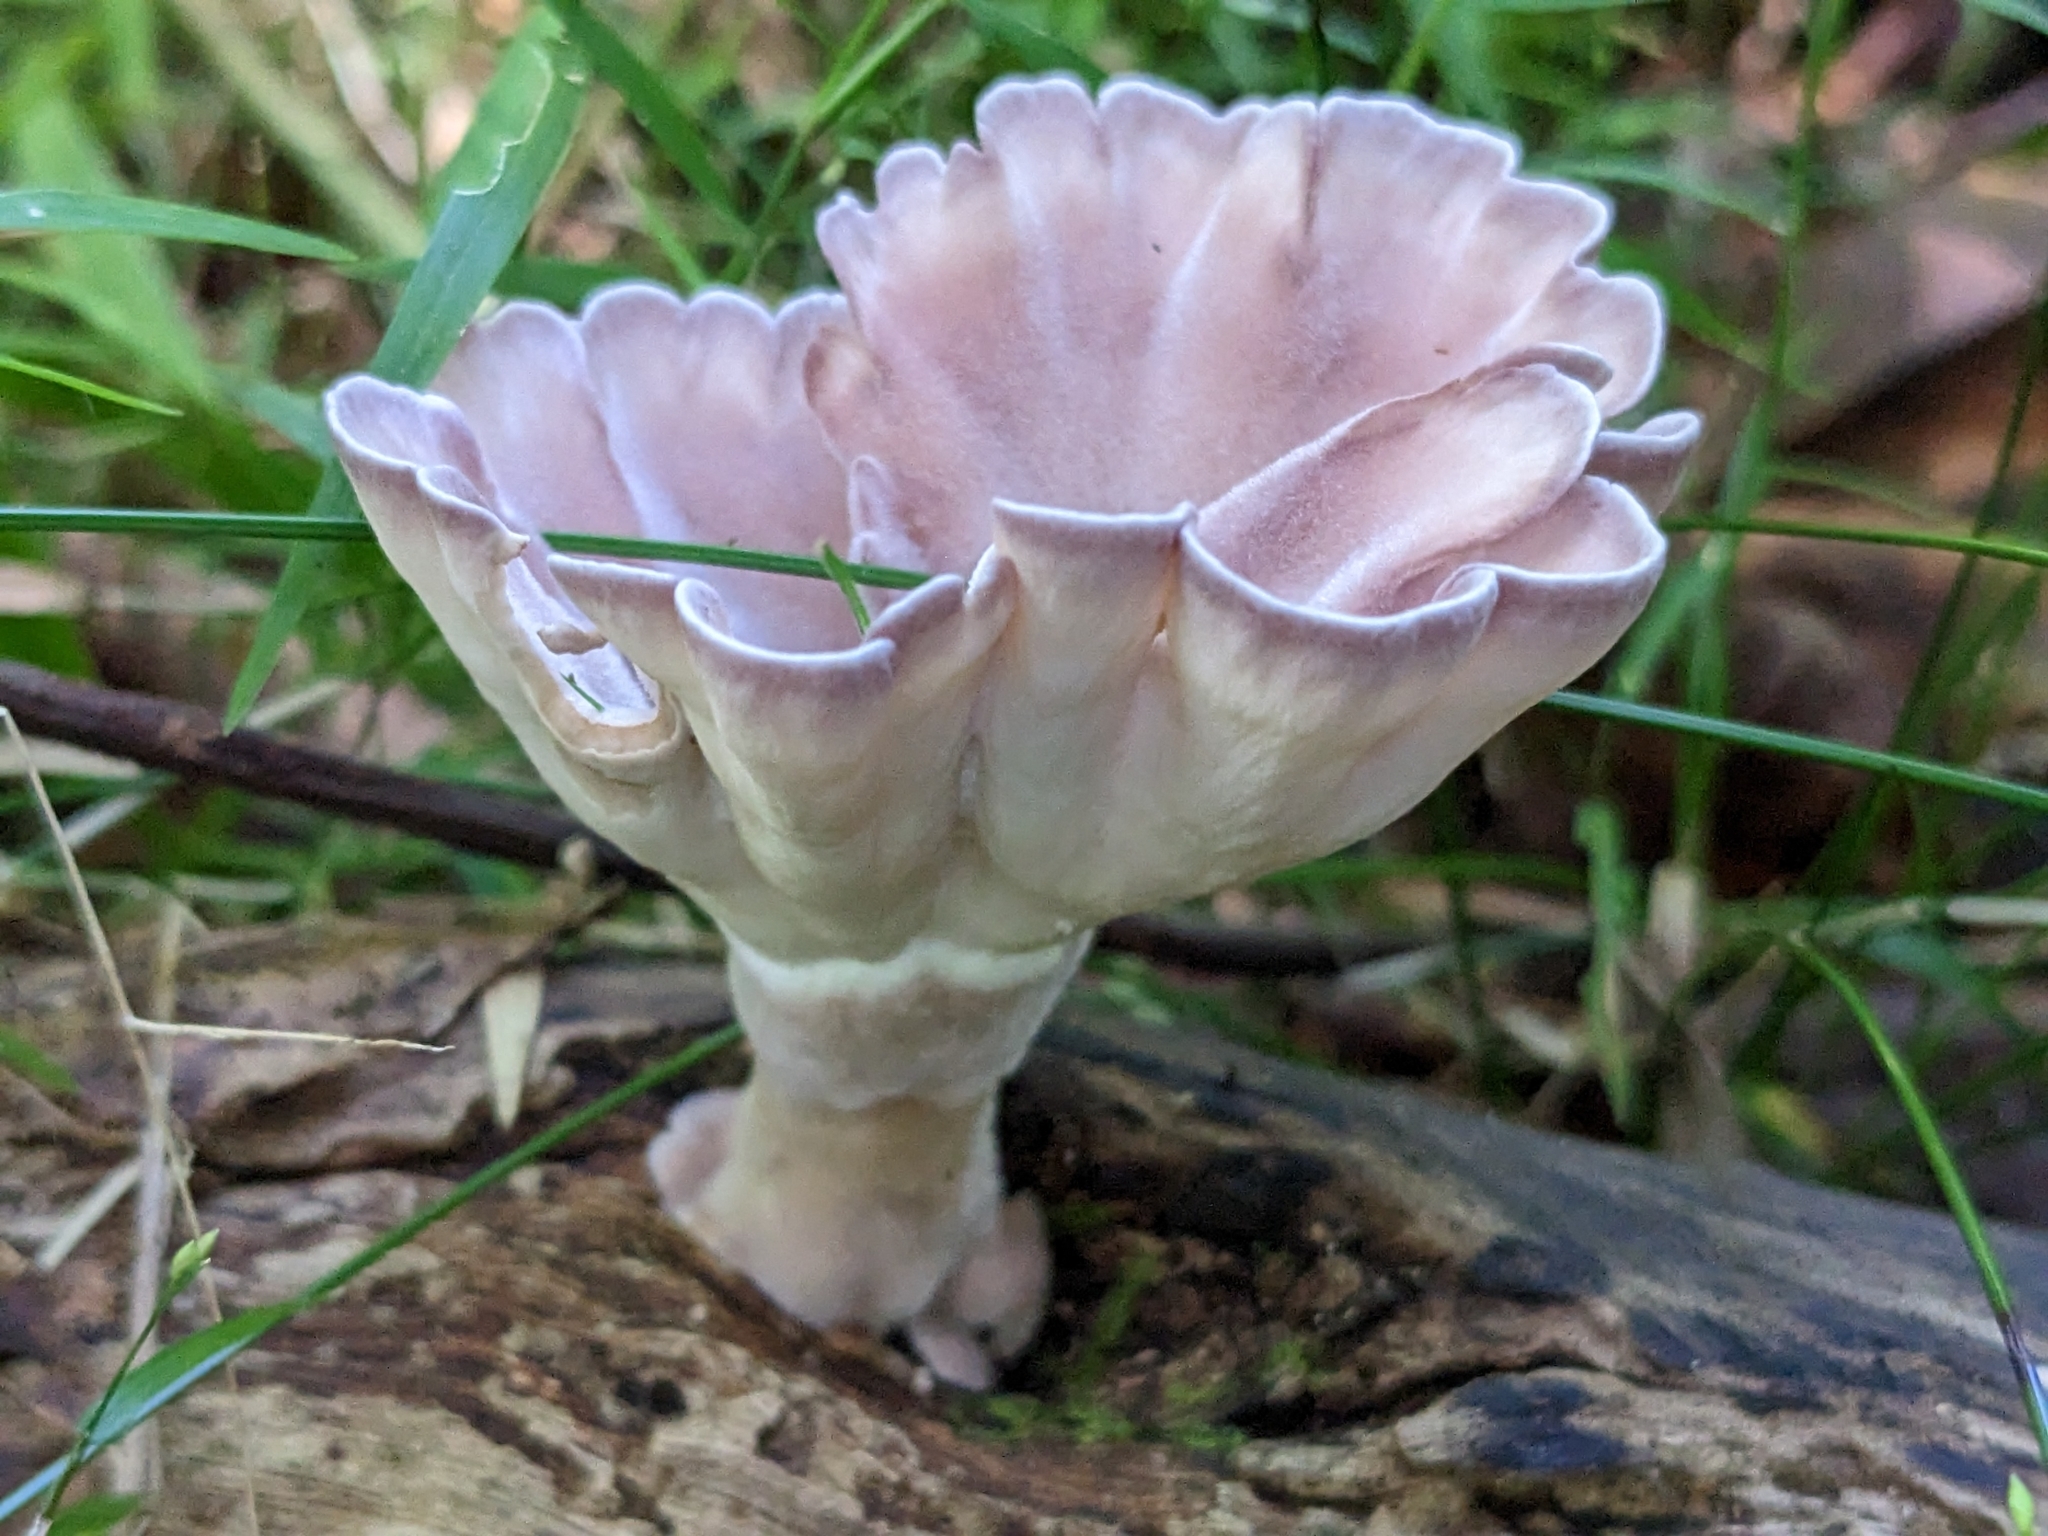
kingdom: Fungi
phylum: Basidiomycota
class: Agaricomycetes
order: Polyporales
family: Panaceae
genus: Cymatoderma
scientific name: Cymatoderma elegans
